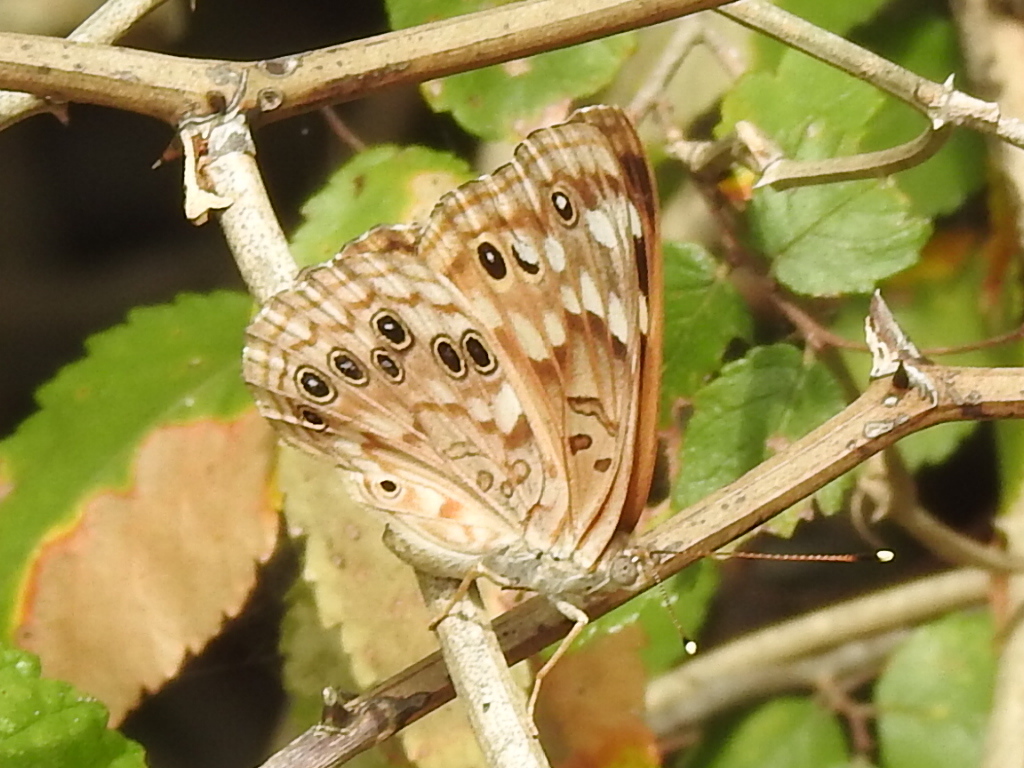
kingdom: Animalia
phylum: Arthropoda
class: Insecta
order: Lepidoptera
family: Nymphalidae
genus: Asterocampa
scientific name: Asterocampa celtis
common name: Hackberry emperor
